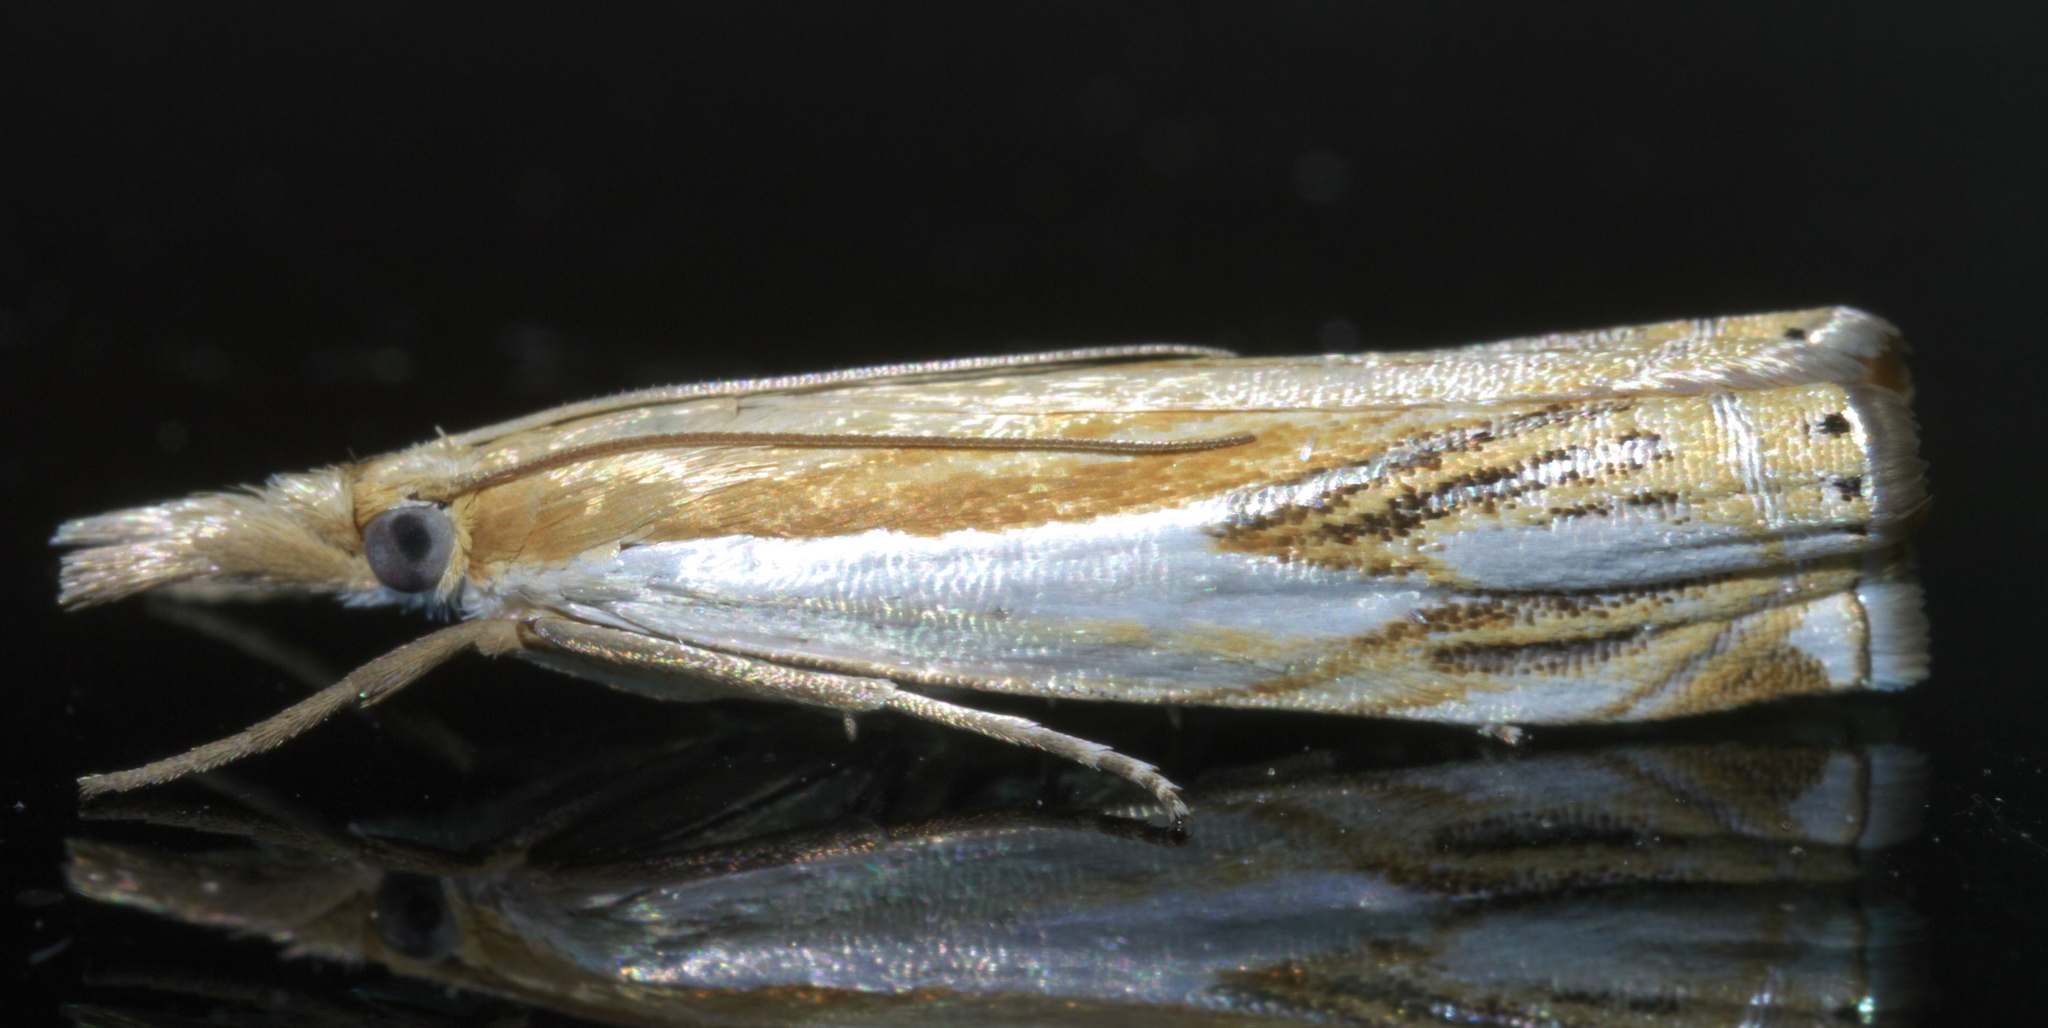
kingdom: Animalia
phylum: Arthropoda
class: Insecta
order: Lepidoptera
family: Crambidae
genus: Crambus
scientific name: Crambus agitatellus
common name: Double-banded grass-veneer
